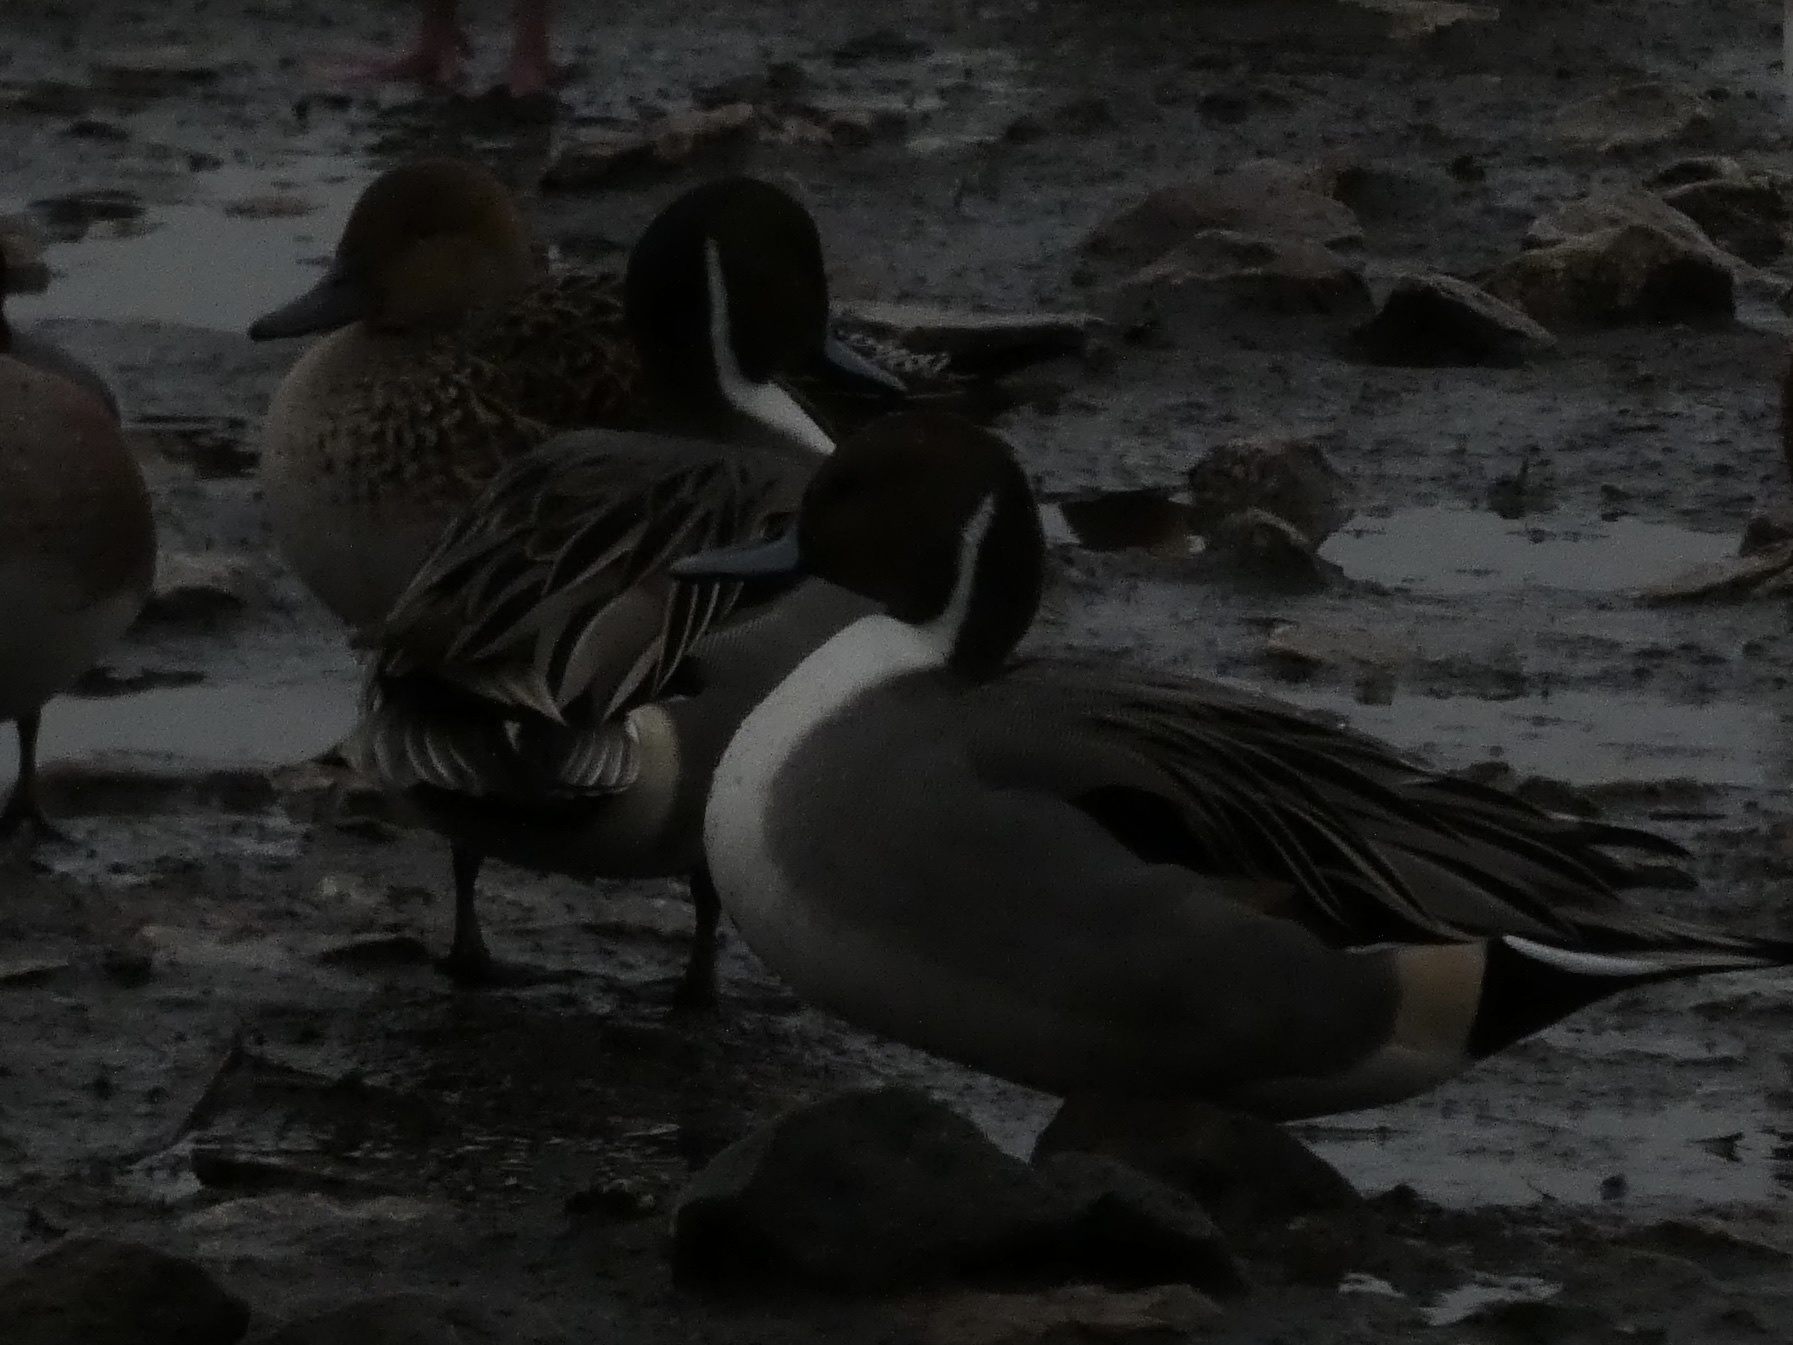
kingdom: Animalia
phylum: Chordata
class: Aves
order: Anseriformes
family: Anatidae
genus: Anas
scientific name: Anas acuta
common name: Northern pintail
